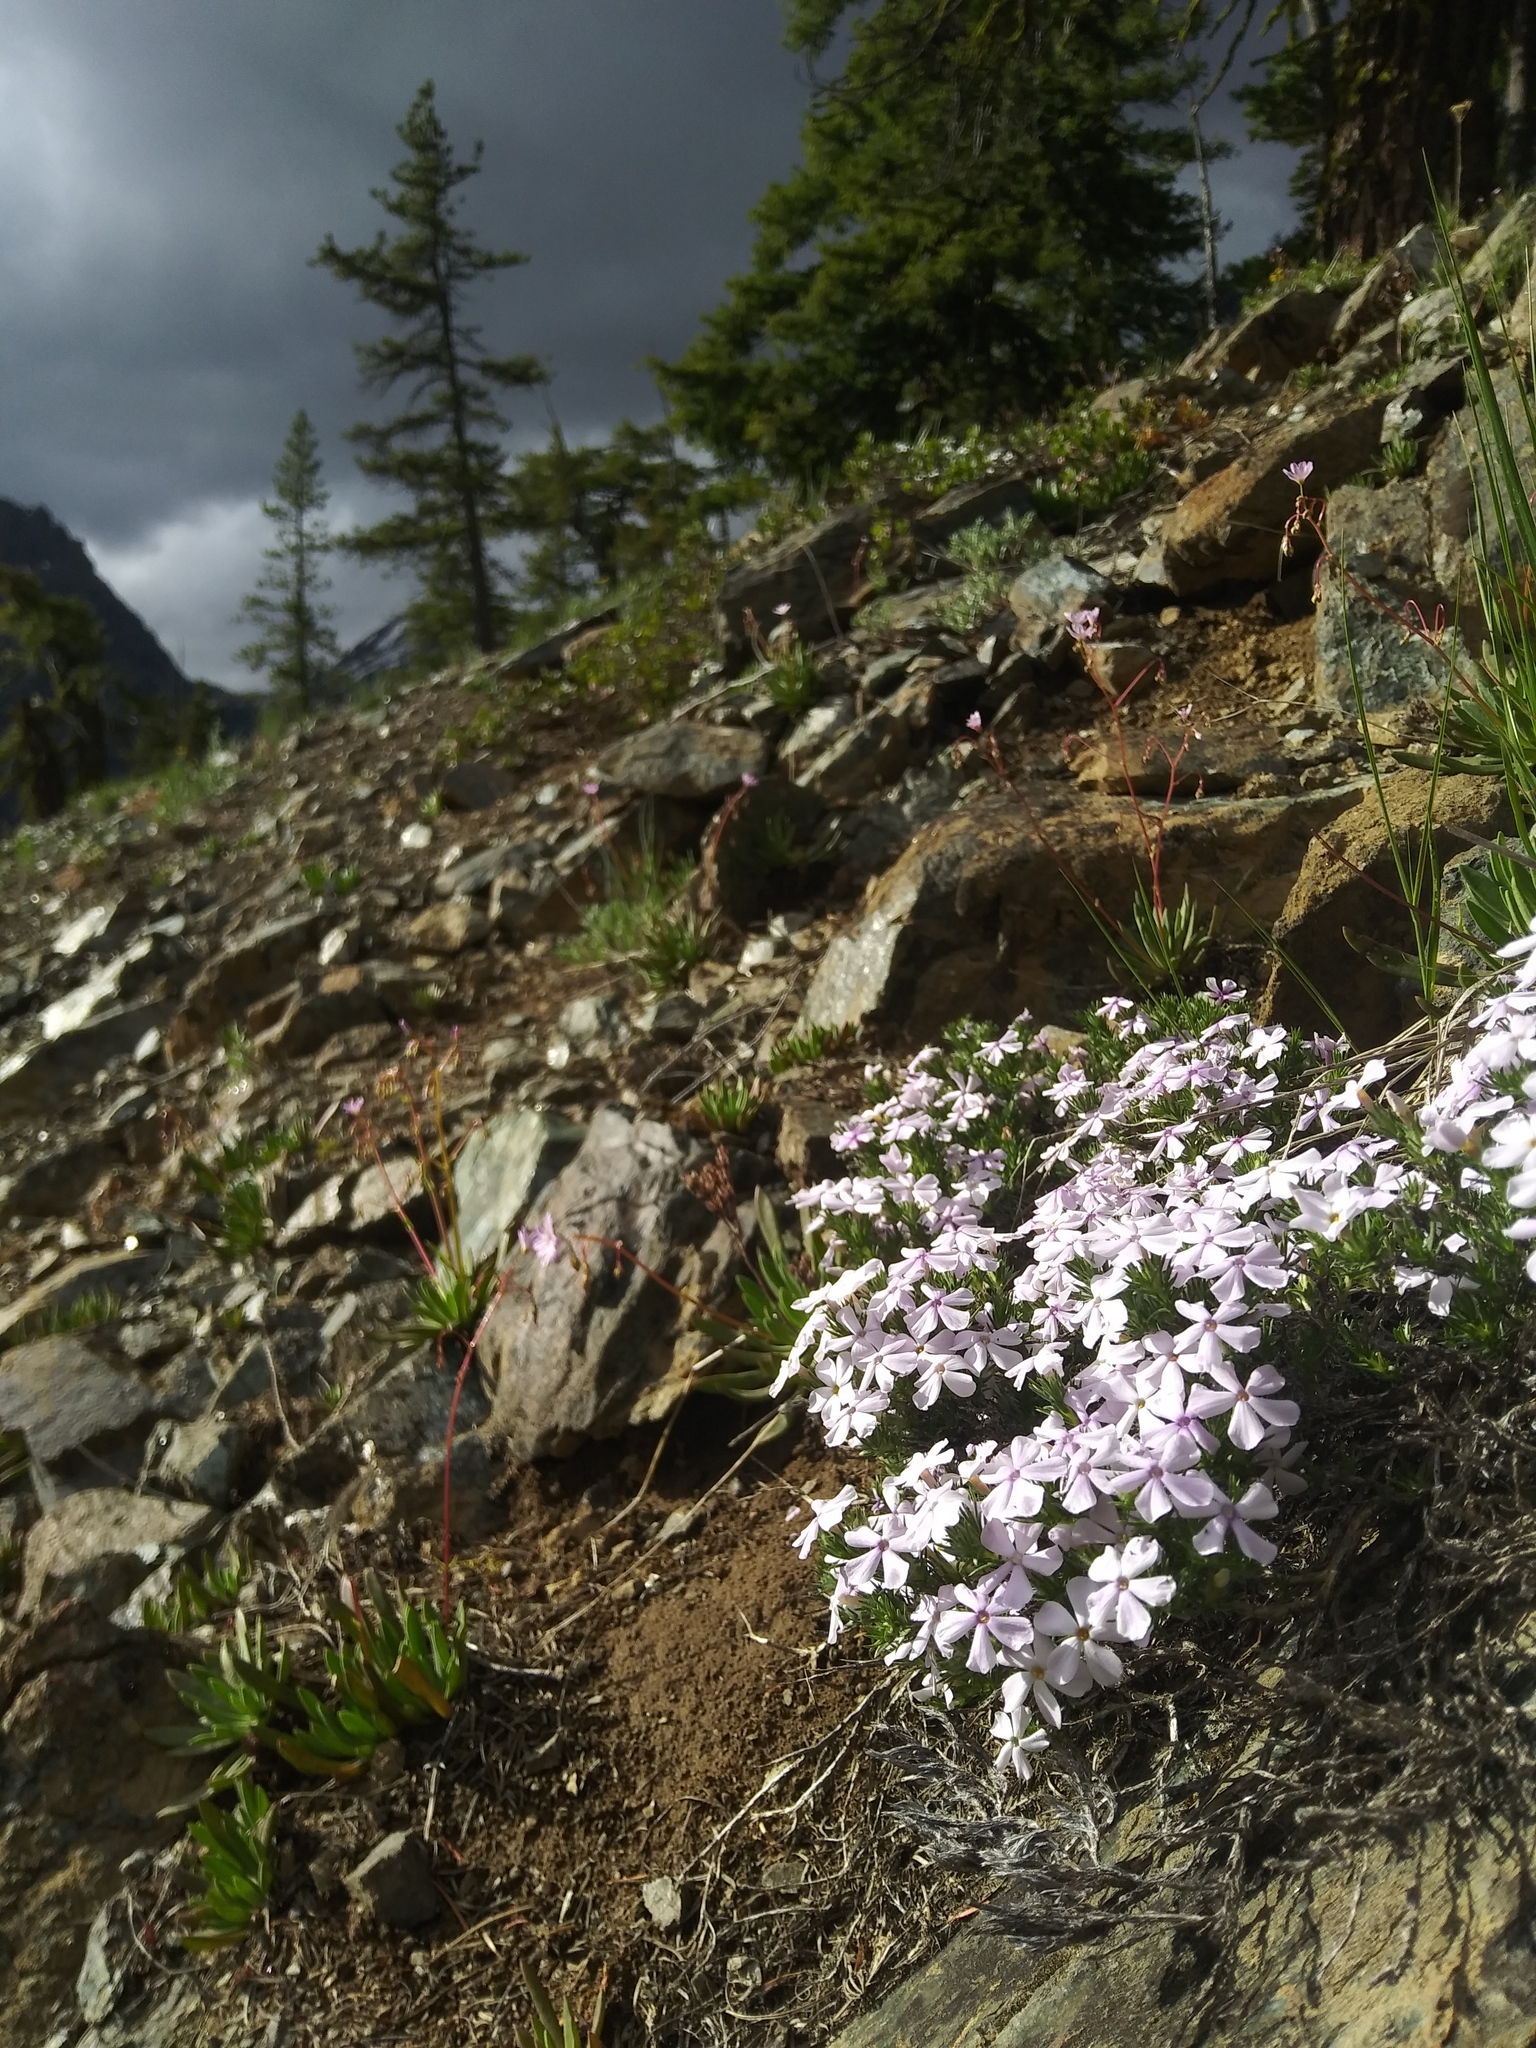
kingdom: Plantae
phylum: Tracheophyta
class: Magnoliopsida
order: Ericales
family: Polemoniaceae
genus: Phlox
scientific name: Phlox hoodii
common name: Moss phlox
